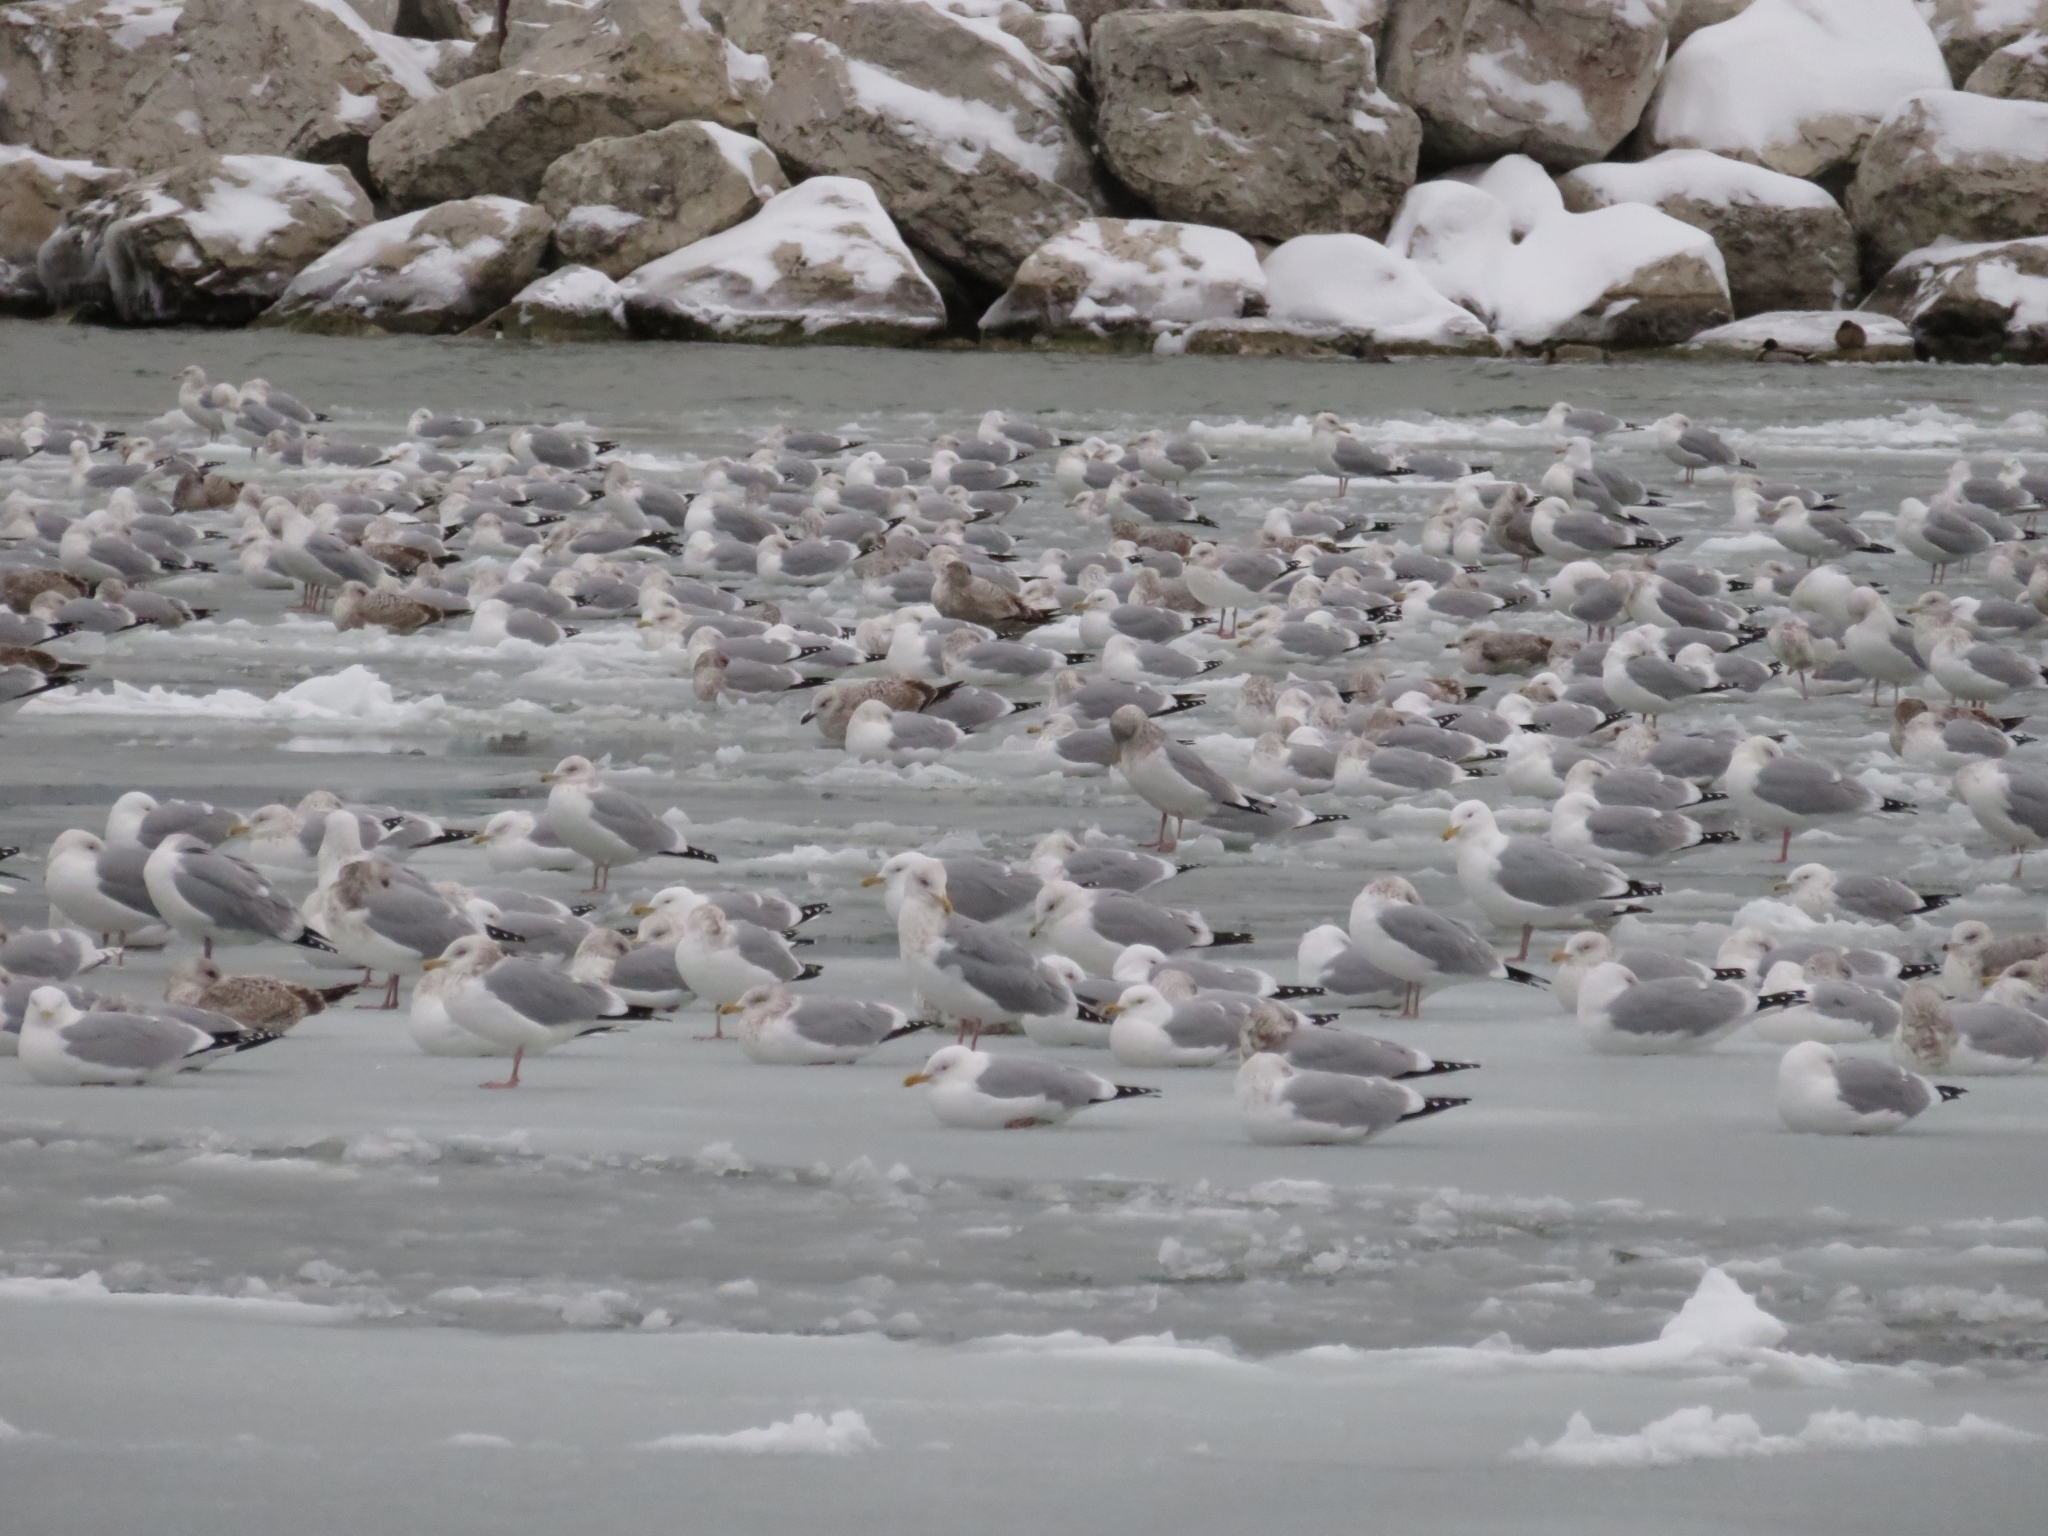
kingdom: Animalia
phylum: Chordata
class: Aves
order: Charadriiformes
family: Laridae
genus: Larus
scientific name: Larus argentatus
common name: Herring gull
